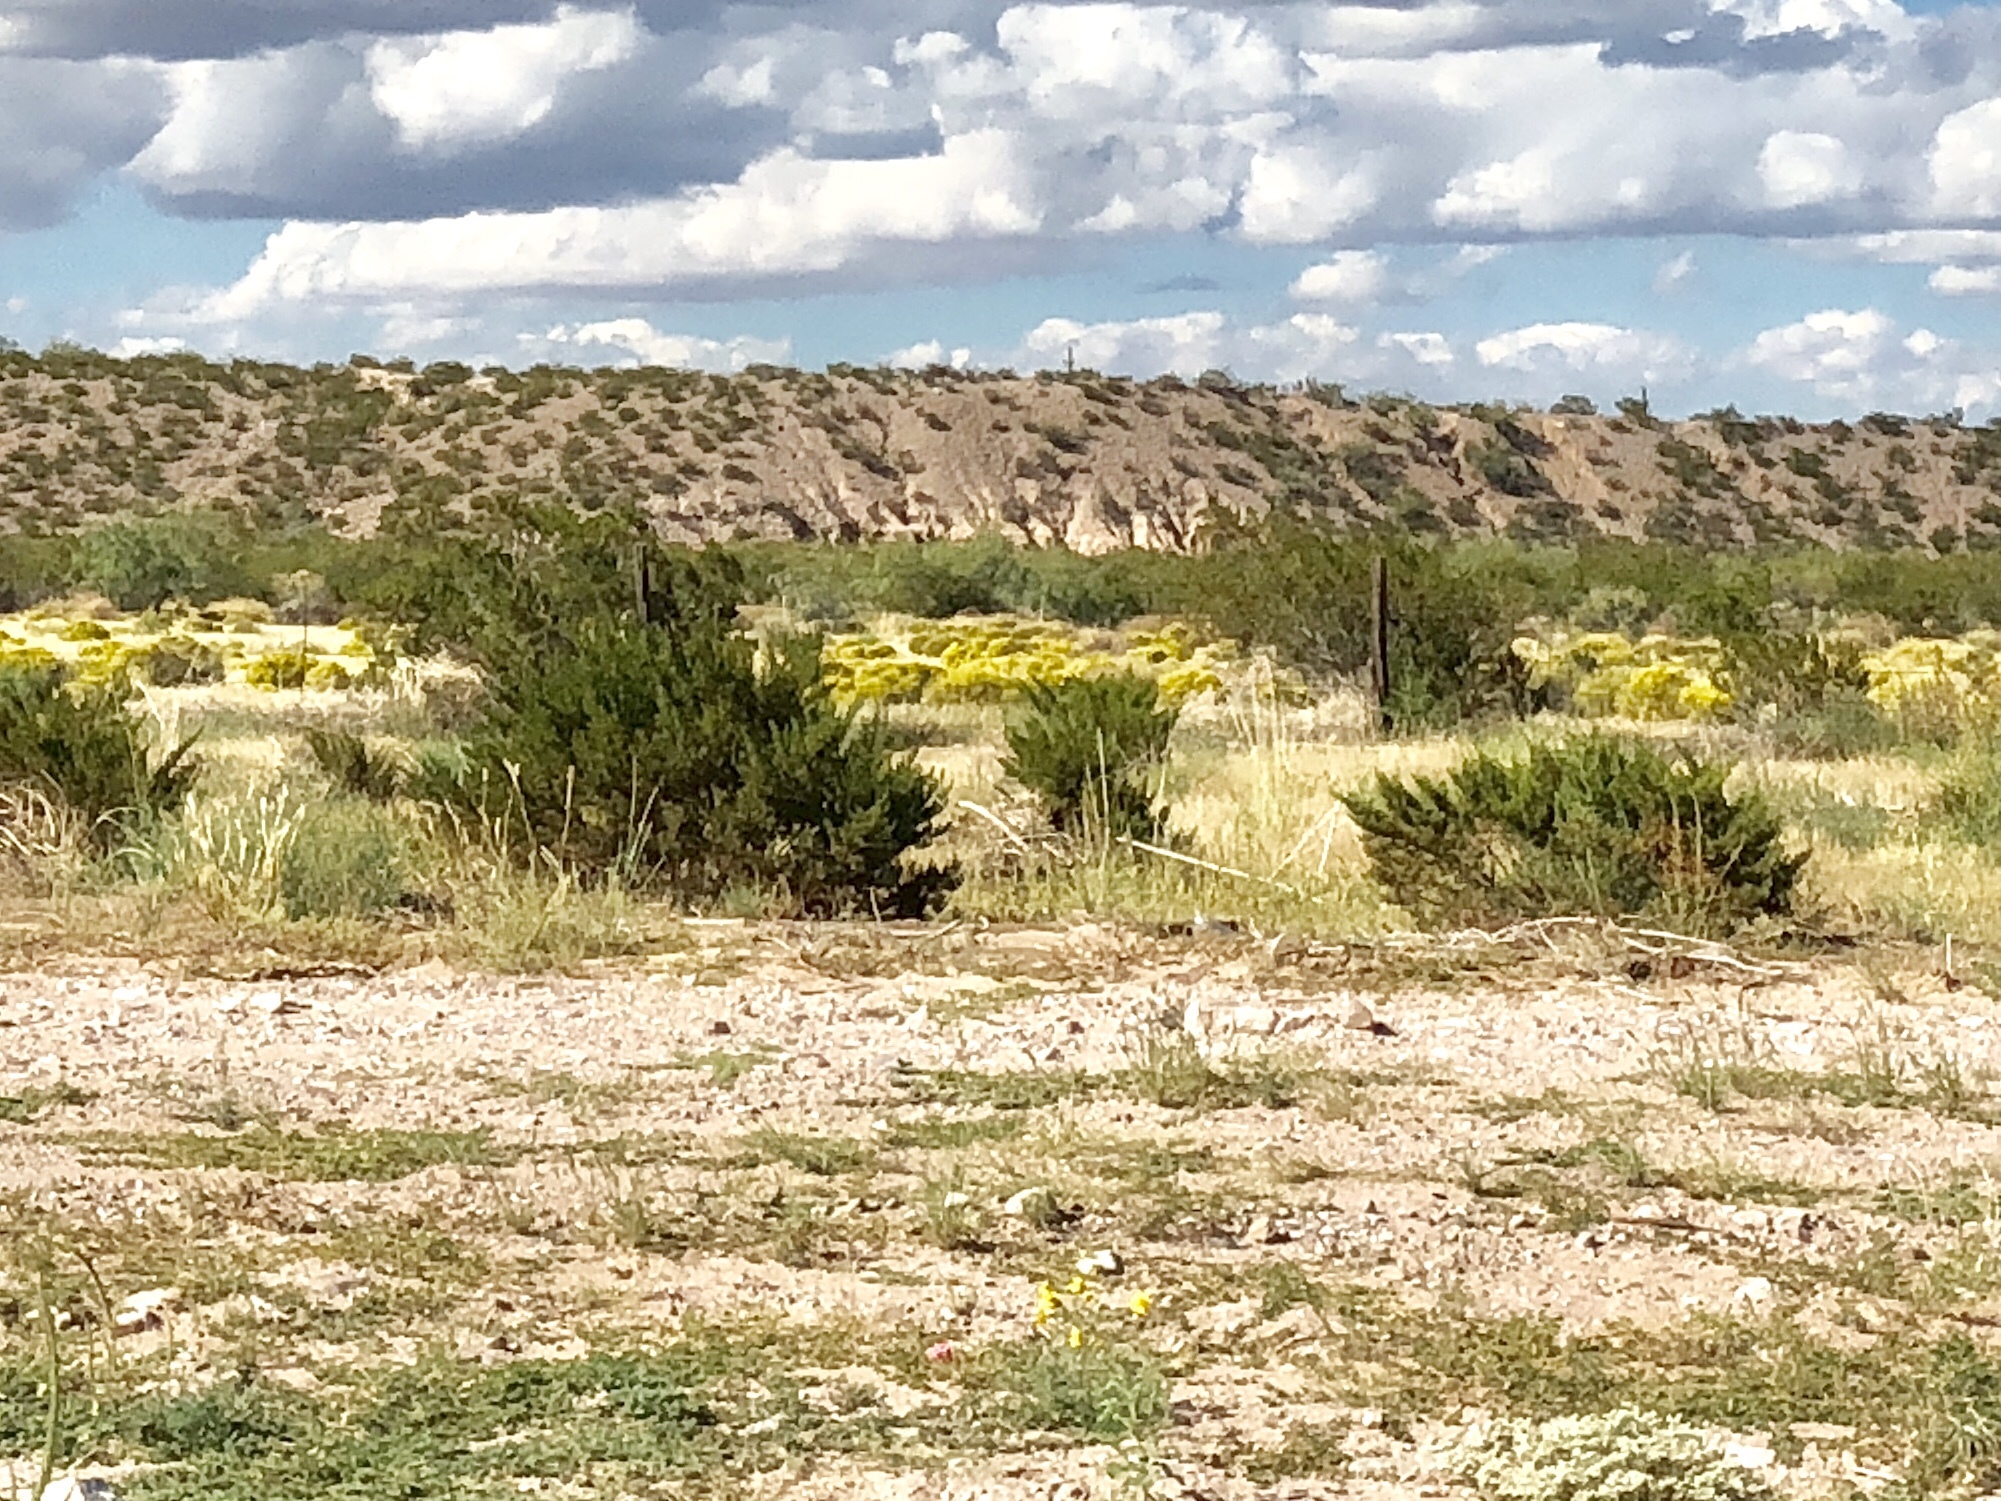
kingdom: Plantae
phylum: Tracheophyta
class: Magnoliopsida
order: Zygophyllales
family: Zygophyllaceae
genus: Larrea
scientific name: Larrea tridentata
